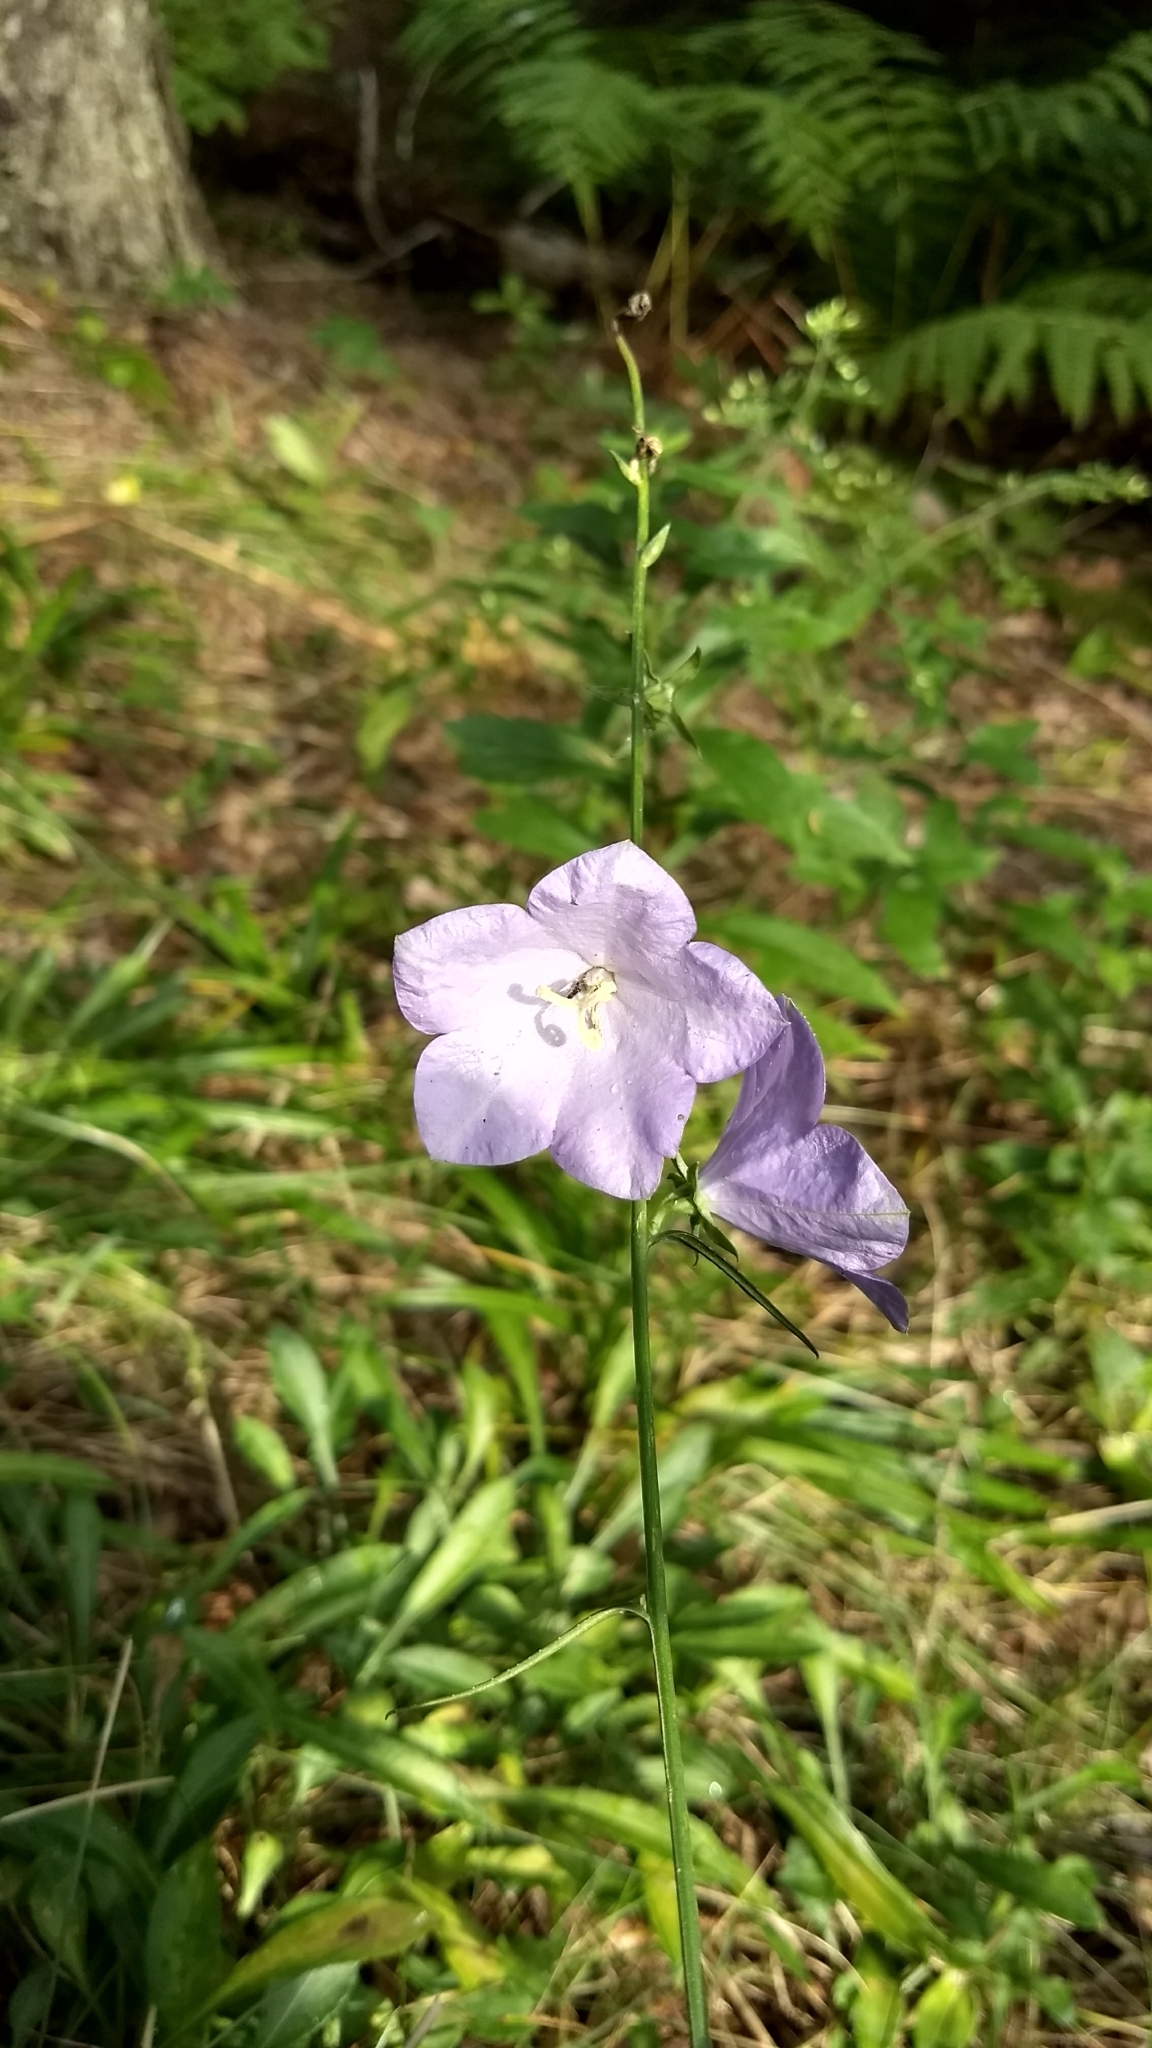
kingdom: Plantae
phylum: Tracheophyta
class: Magnoliopsida
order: Asterales
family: Campanulaceae
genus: Campanula
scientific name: Campanula persicifolia
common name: Peach-leaved bellflower
